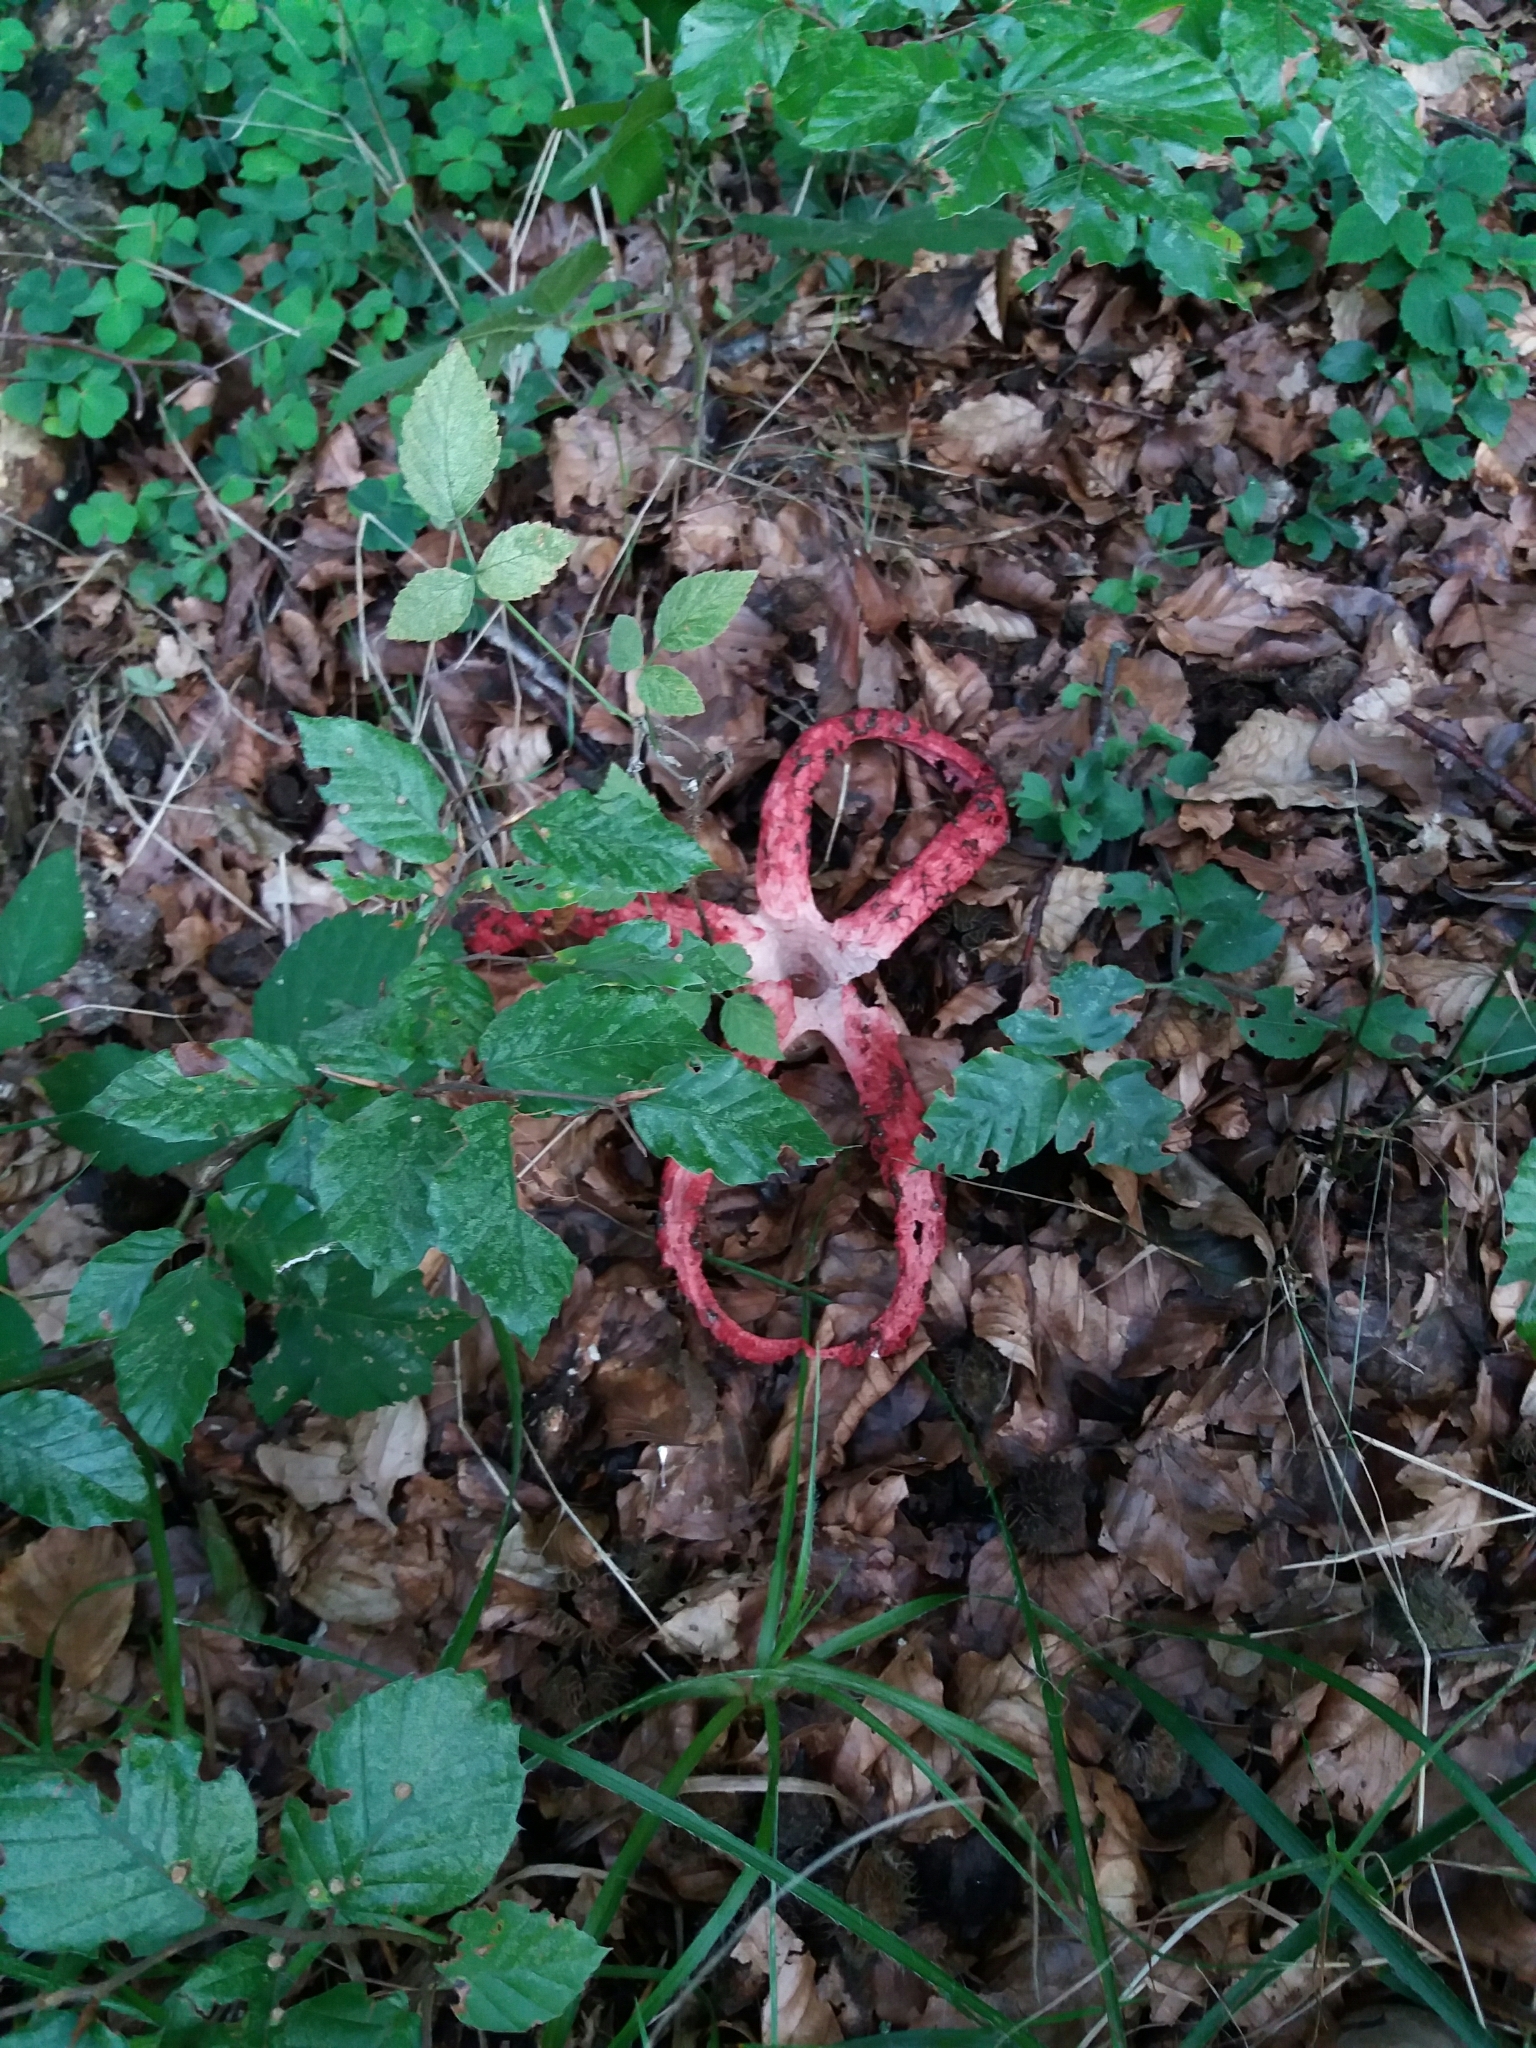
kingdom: Fungi
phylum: Basidiomycota
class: Agaricomycetes
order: Phallales
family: Phallaceae
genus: Clathrus
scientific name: Clathrus archeri
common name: Devil's fingers
